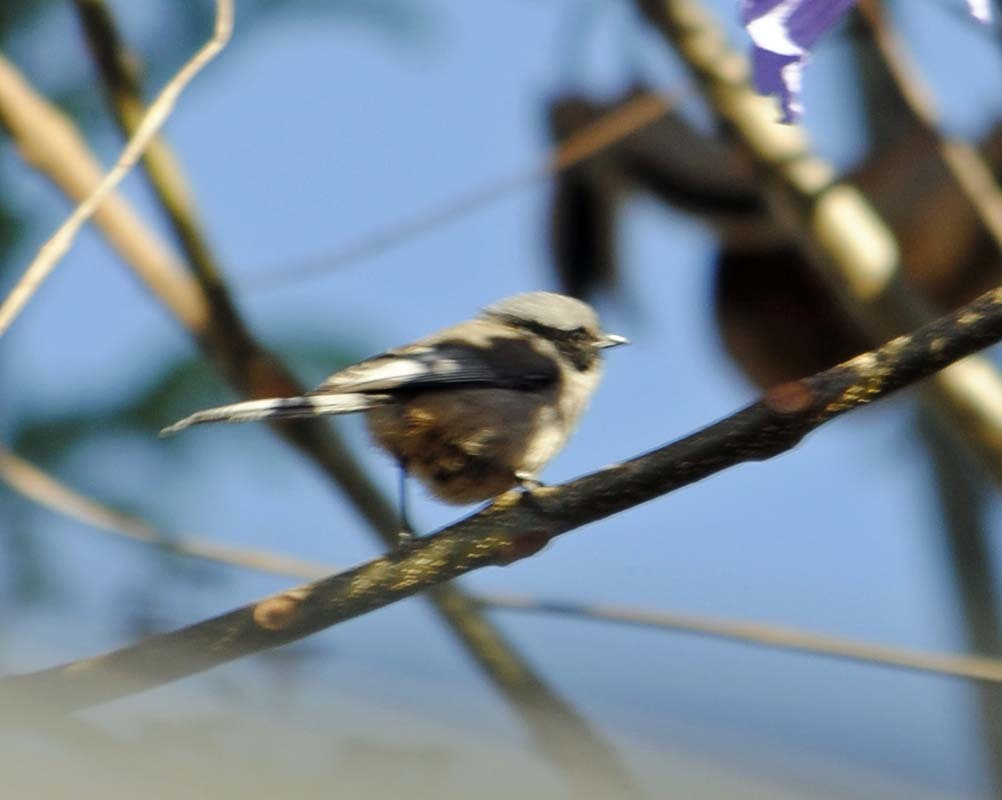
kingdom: Animalia
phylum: Chordata
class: Aves
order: Passeriformes
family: Aegithalidae
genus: Psaltriparus
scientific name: Psaltriparus minimus
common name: American bushtit
